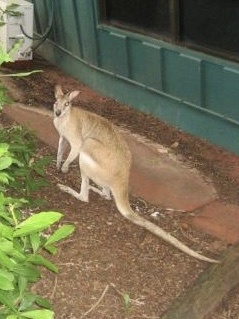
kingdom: Animalia
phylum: Chordata
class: Mammalia
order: Diprotodontia
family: Macropodidae
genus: Macropus
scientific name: Macropus agilis
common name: Agile wallaby
